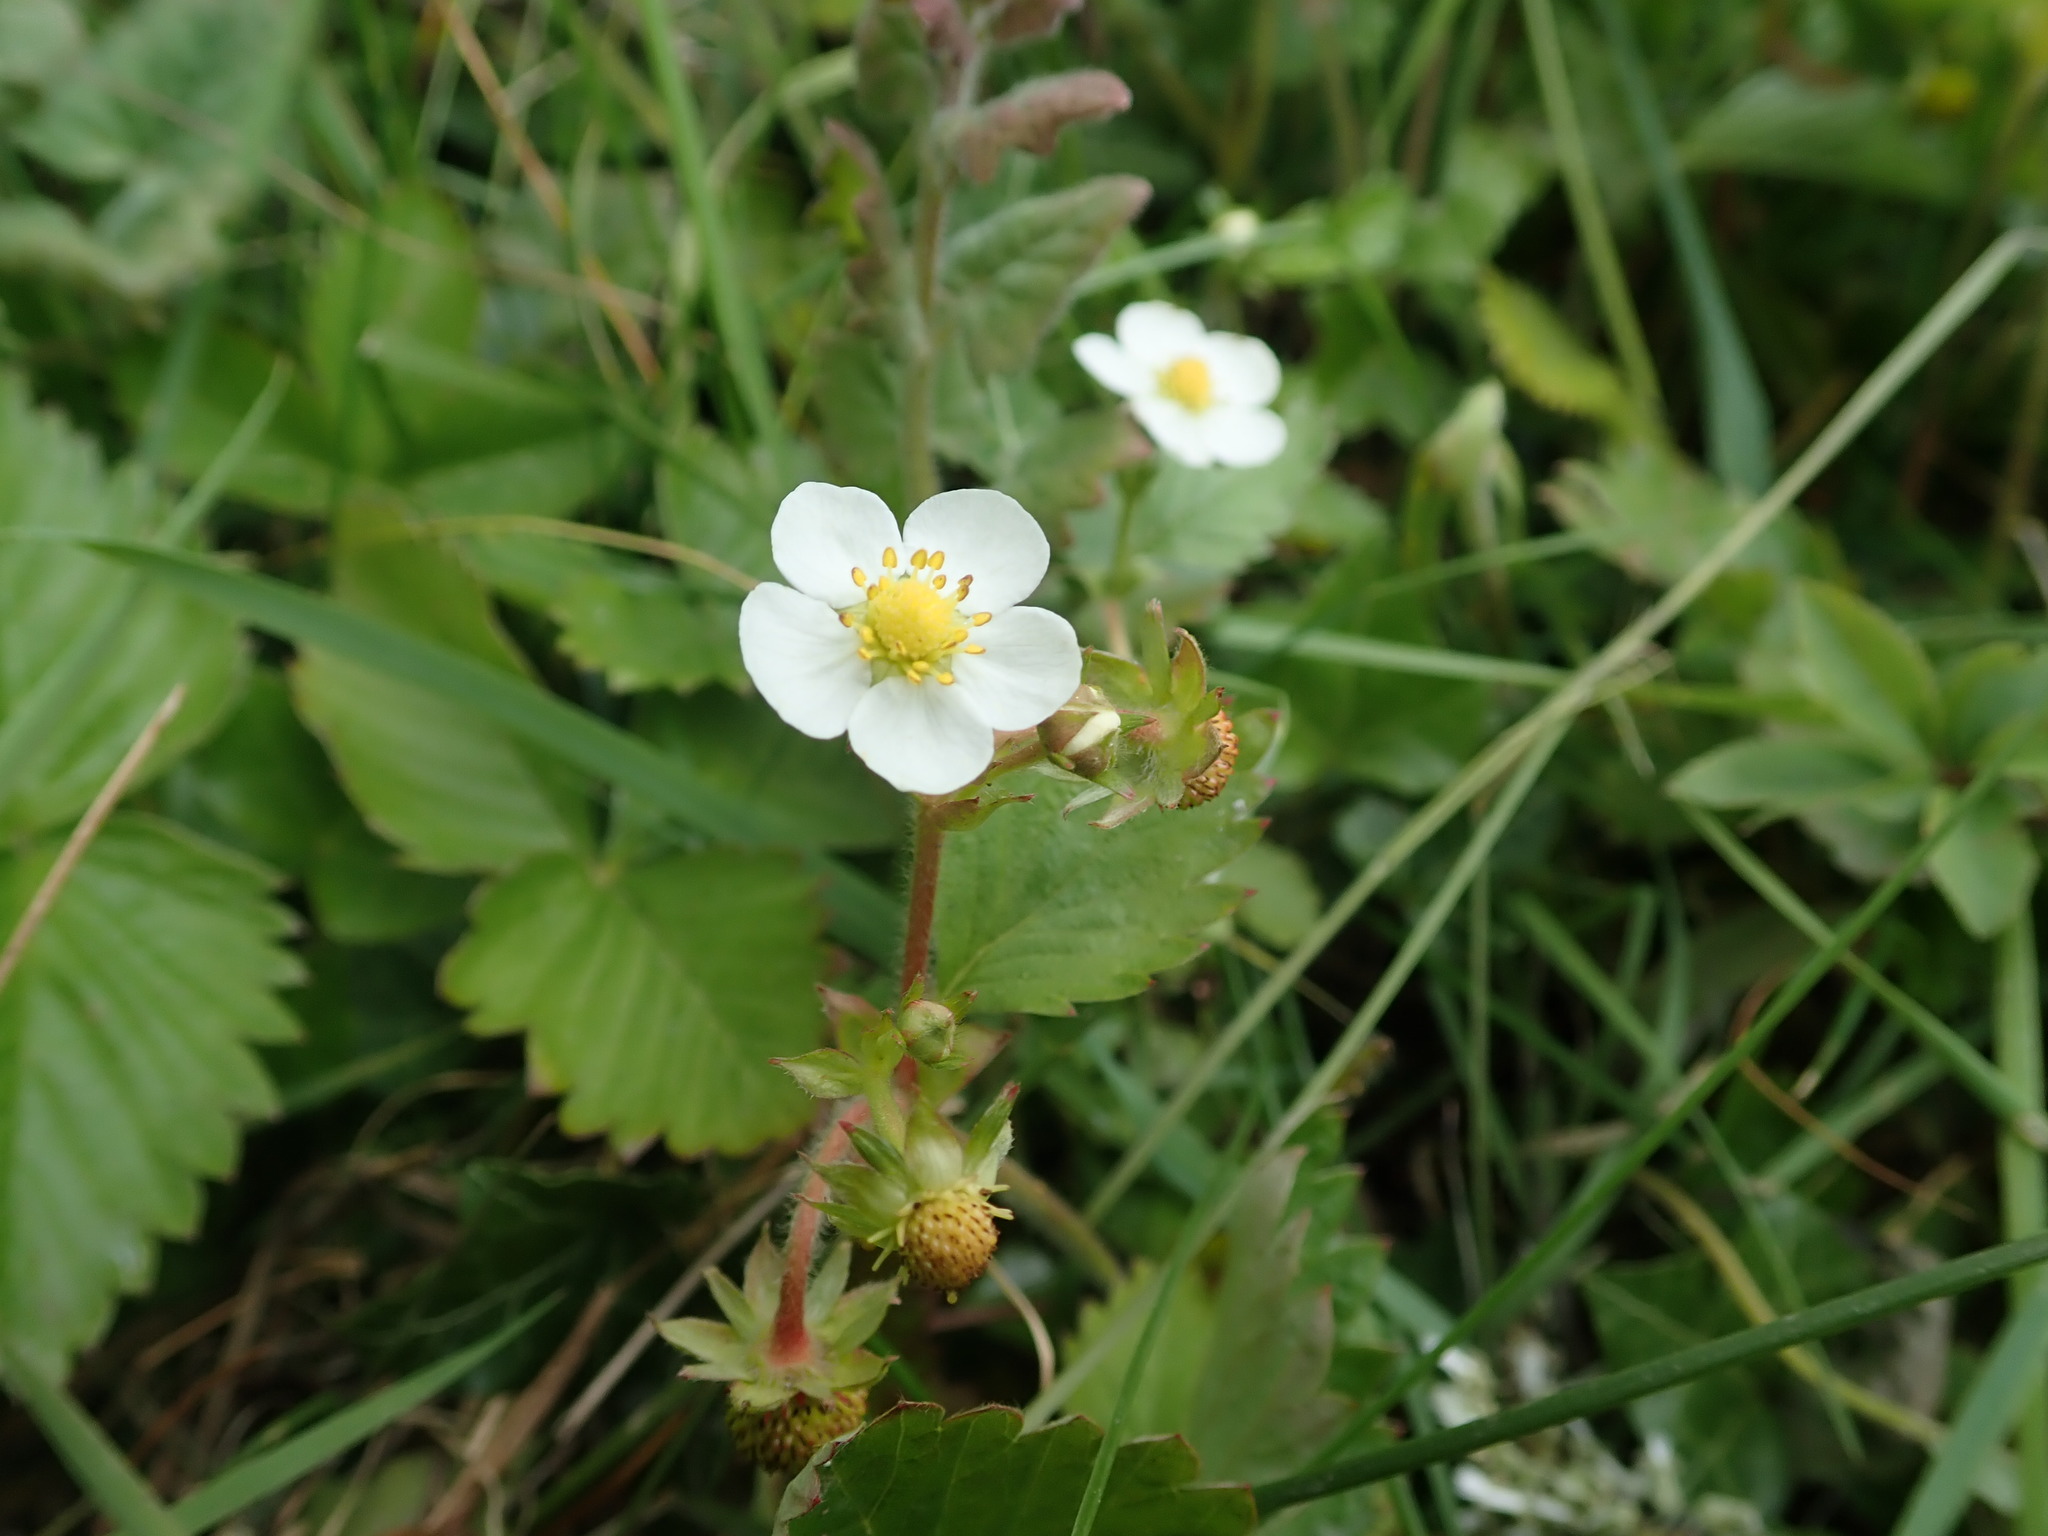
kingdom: Plantae
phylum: Tracheophyta
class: Magnoliopsida
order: Rosales
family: Rosaceae
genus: Fragaria
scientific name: Fragaria vesca
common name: Wild strawberry
